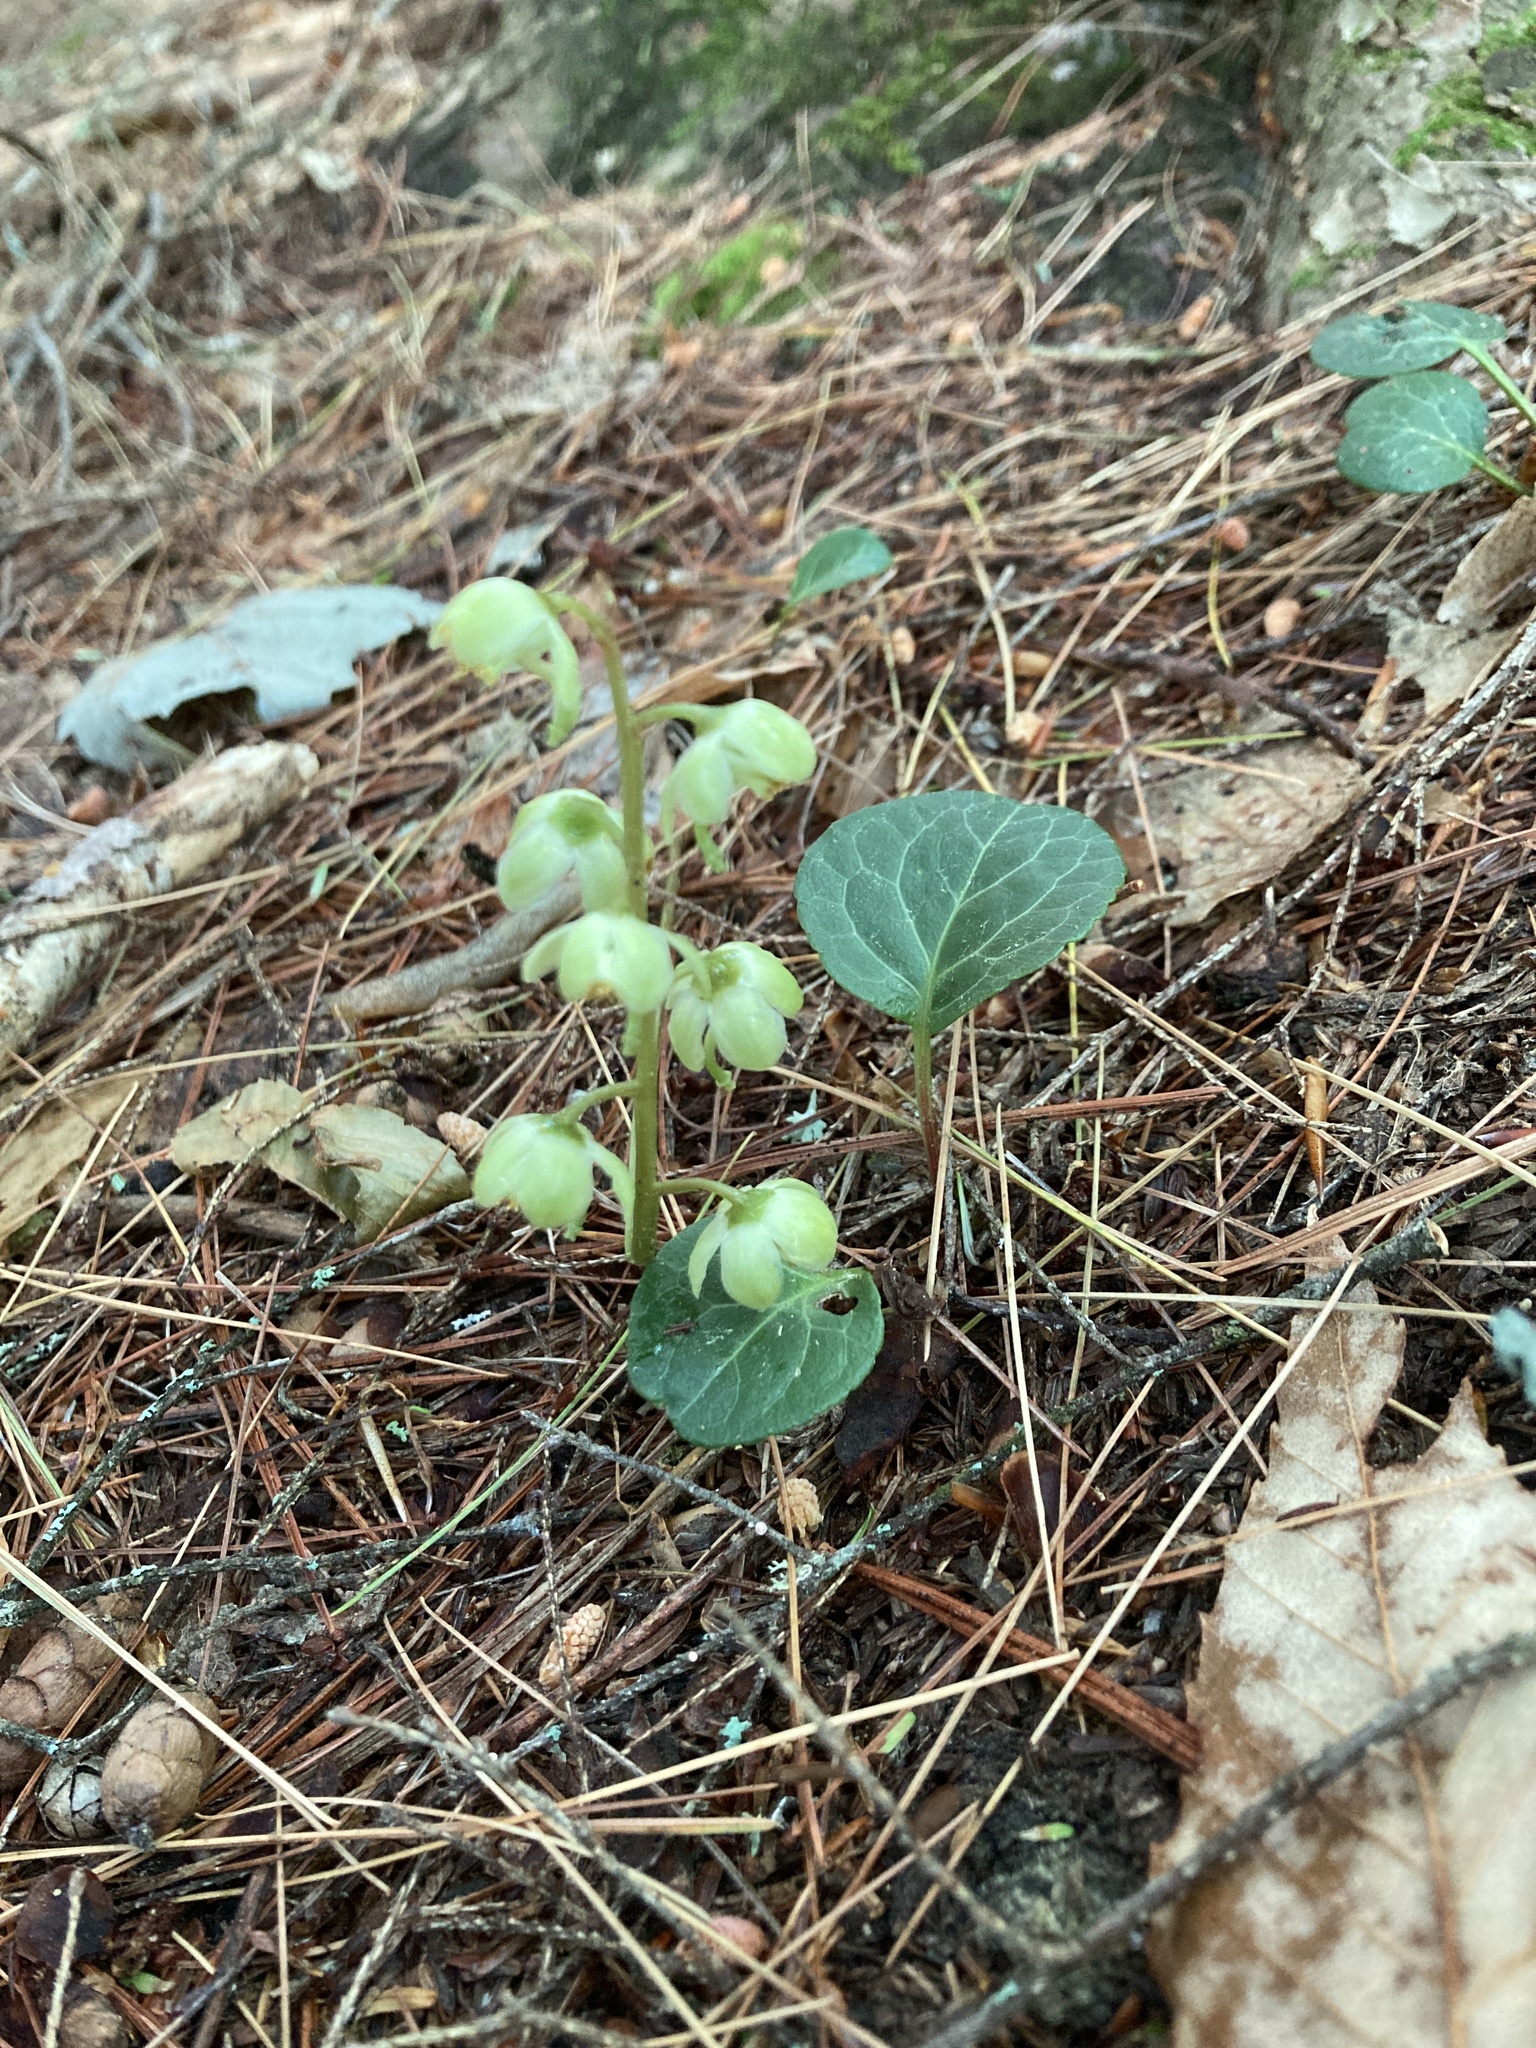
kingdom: Plantae
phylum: Tracheophyta
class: Magnoliopsida
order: Ericales
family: Ericaceae
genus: Pyrola
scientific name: Pyrola chlorantha
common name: Green wintergreen
